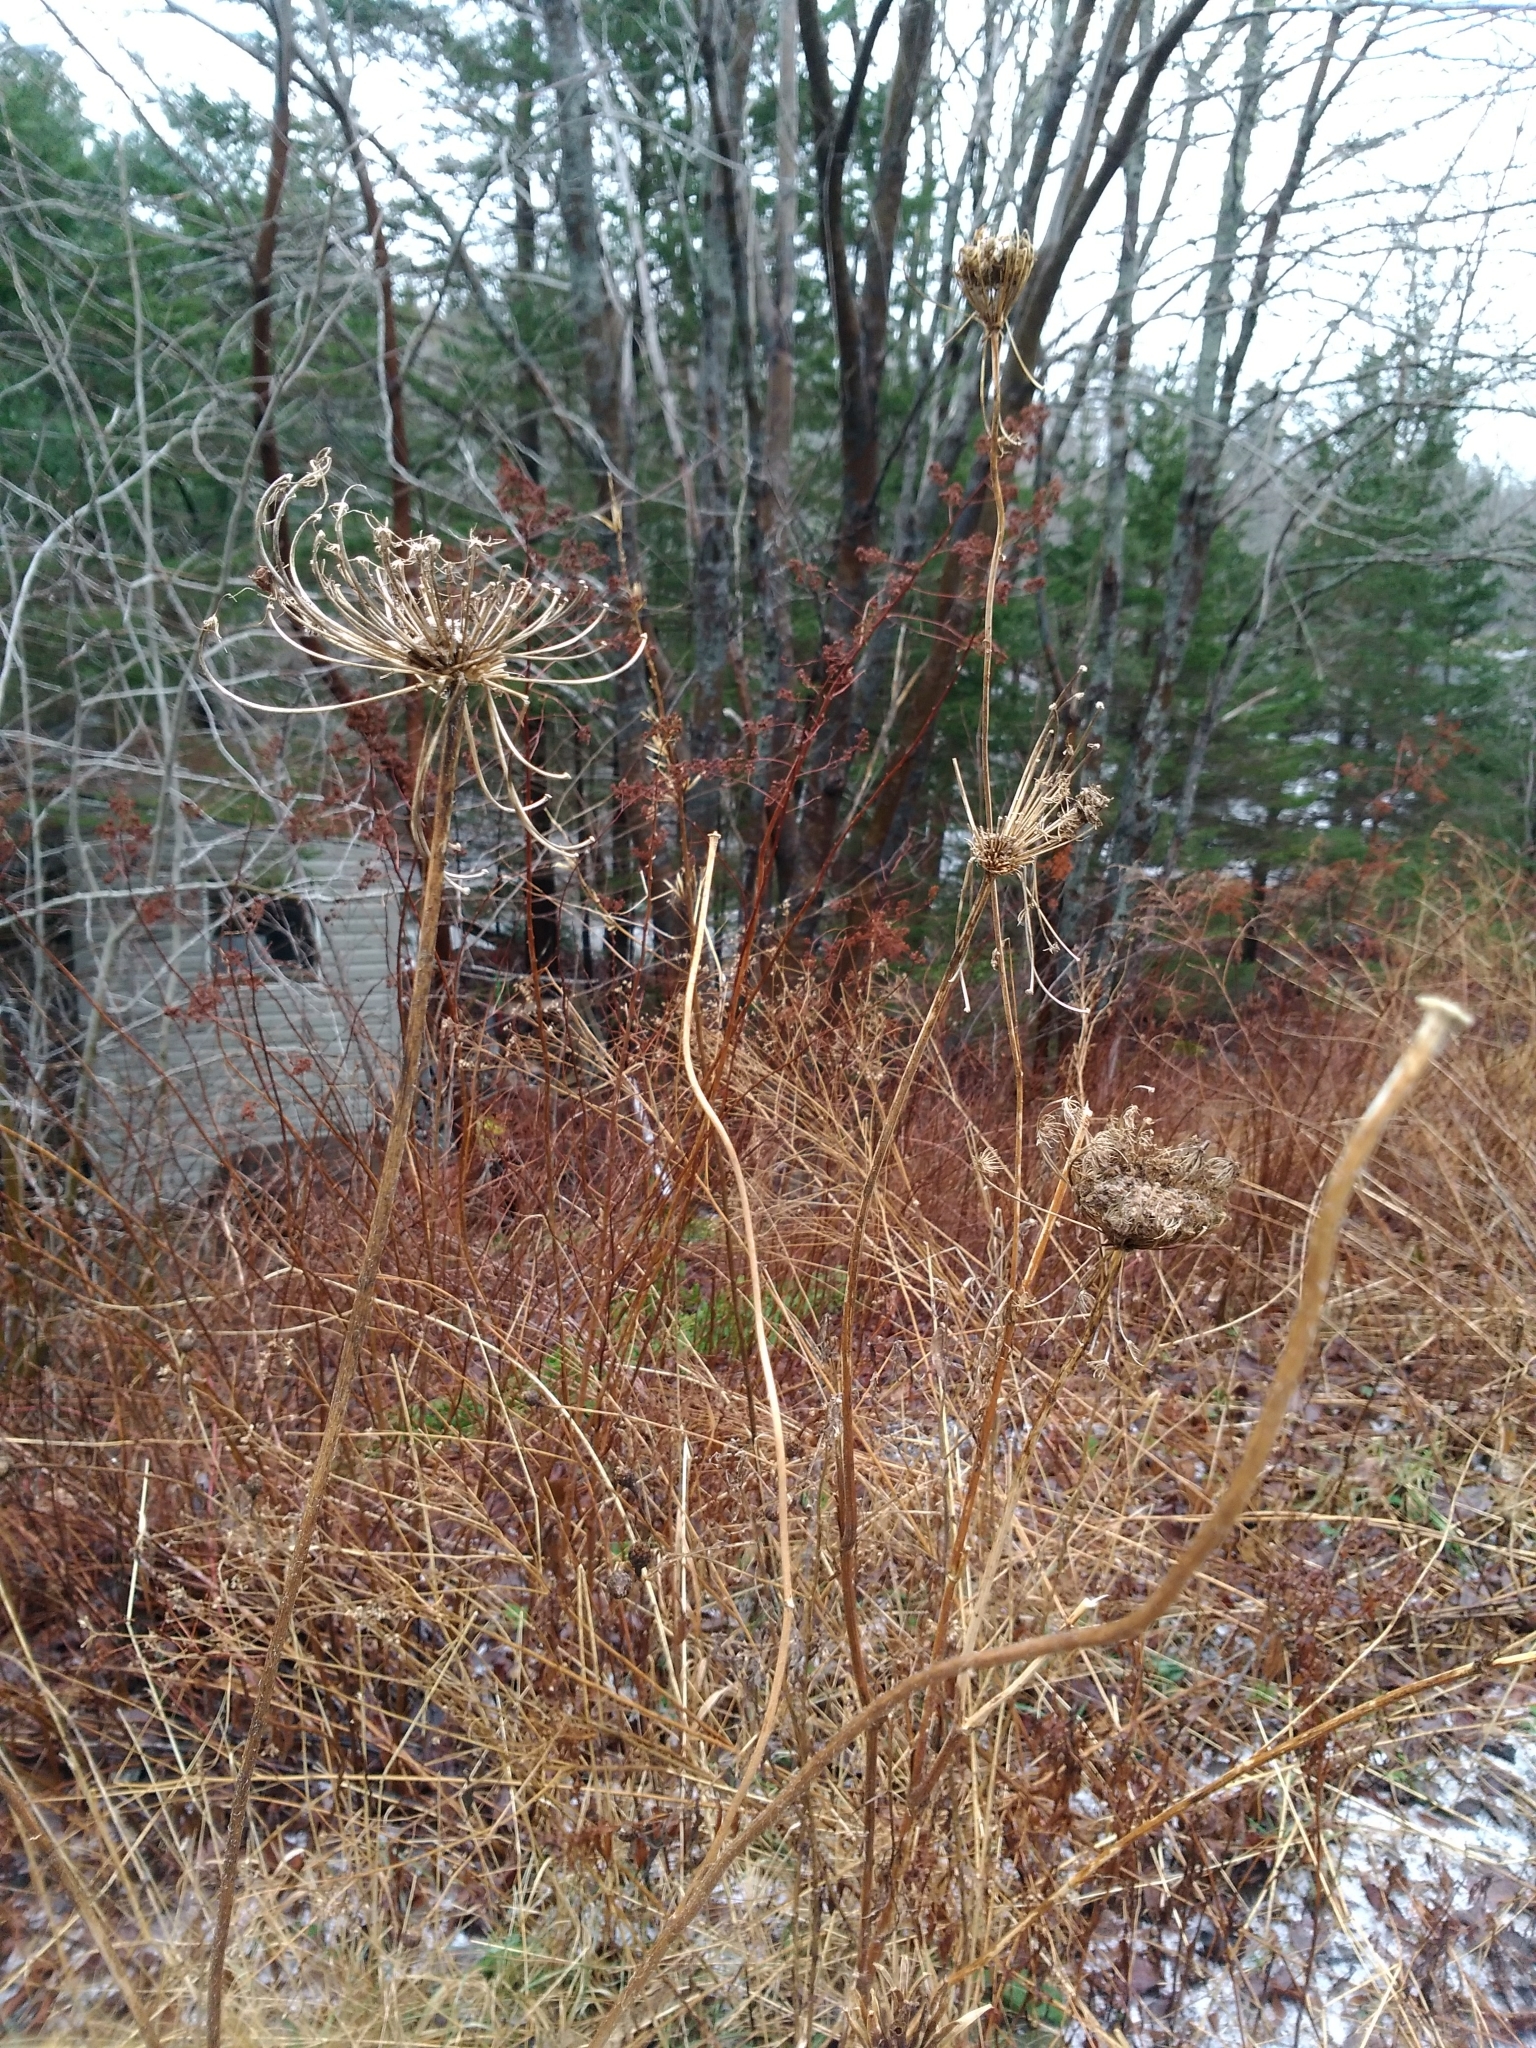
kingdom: Plantae
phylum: Tracheophyta
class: Magnoliopsida
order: Apiales
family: Apiaceae
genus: Daucus
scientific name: Daucus carota
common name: Wild carrot
